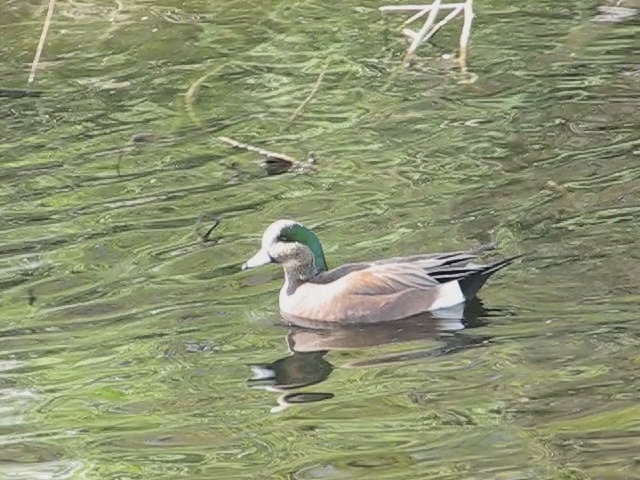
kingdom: Animalia
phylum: Chordata
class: Aves
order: Anseriformes
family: Anatidae
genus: Mareca
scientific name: Mareca americana
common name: American wigeon
